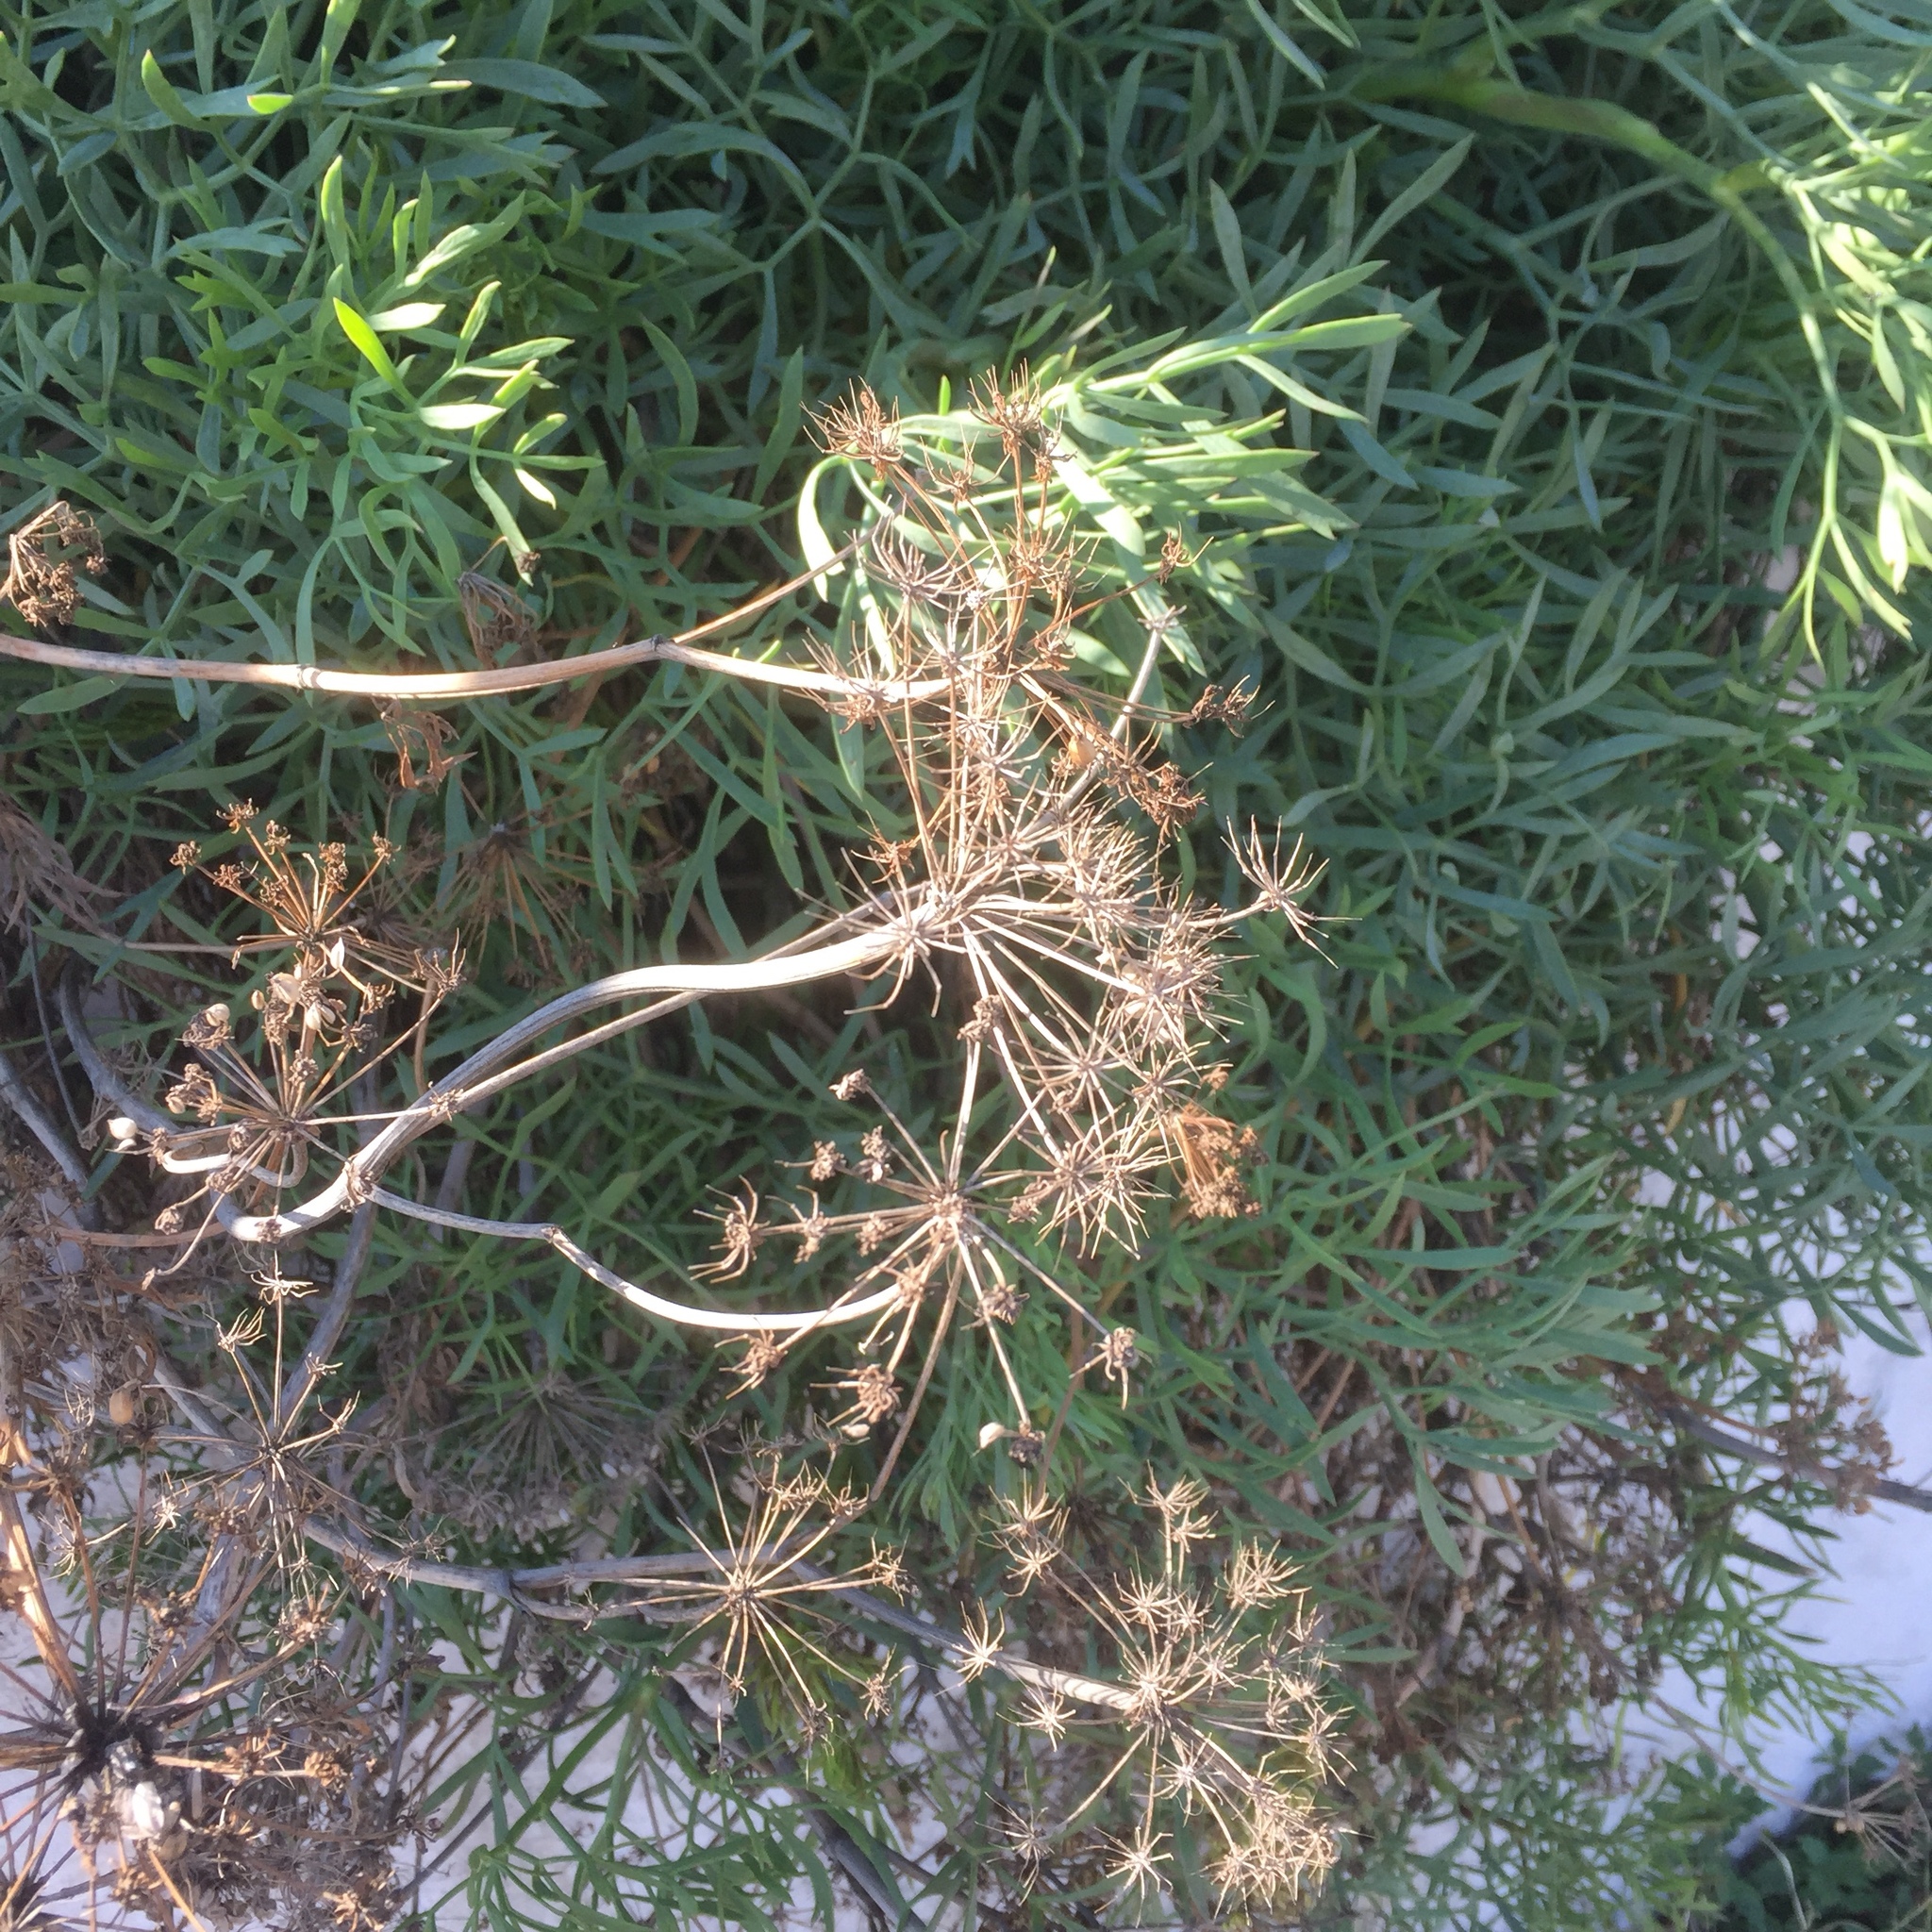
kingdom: Plantae
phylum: Tracheophyta
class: Magnoliopsida
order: Apiales
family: Apiaceae
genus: Crithmum
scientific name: Crithmum maritimum
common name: Rock samphire
